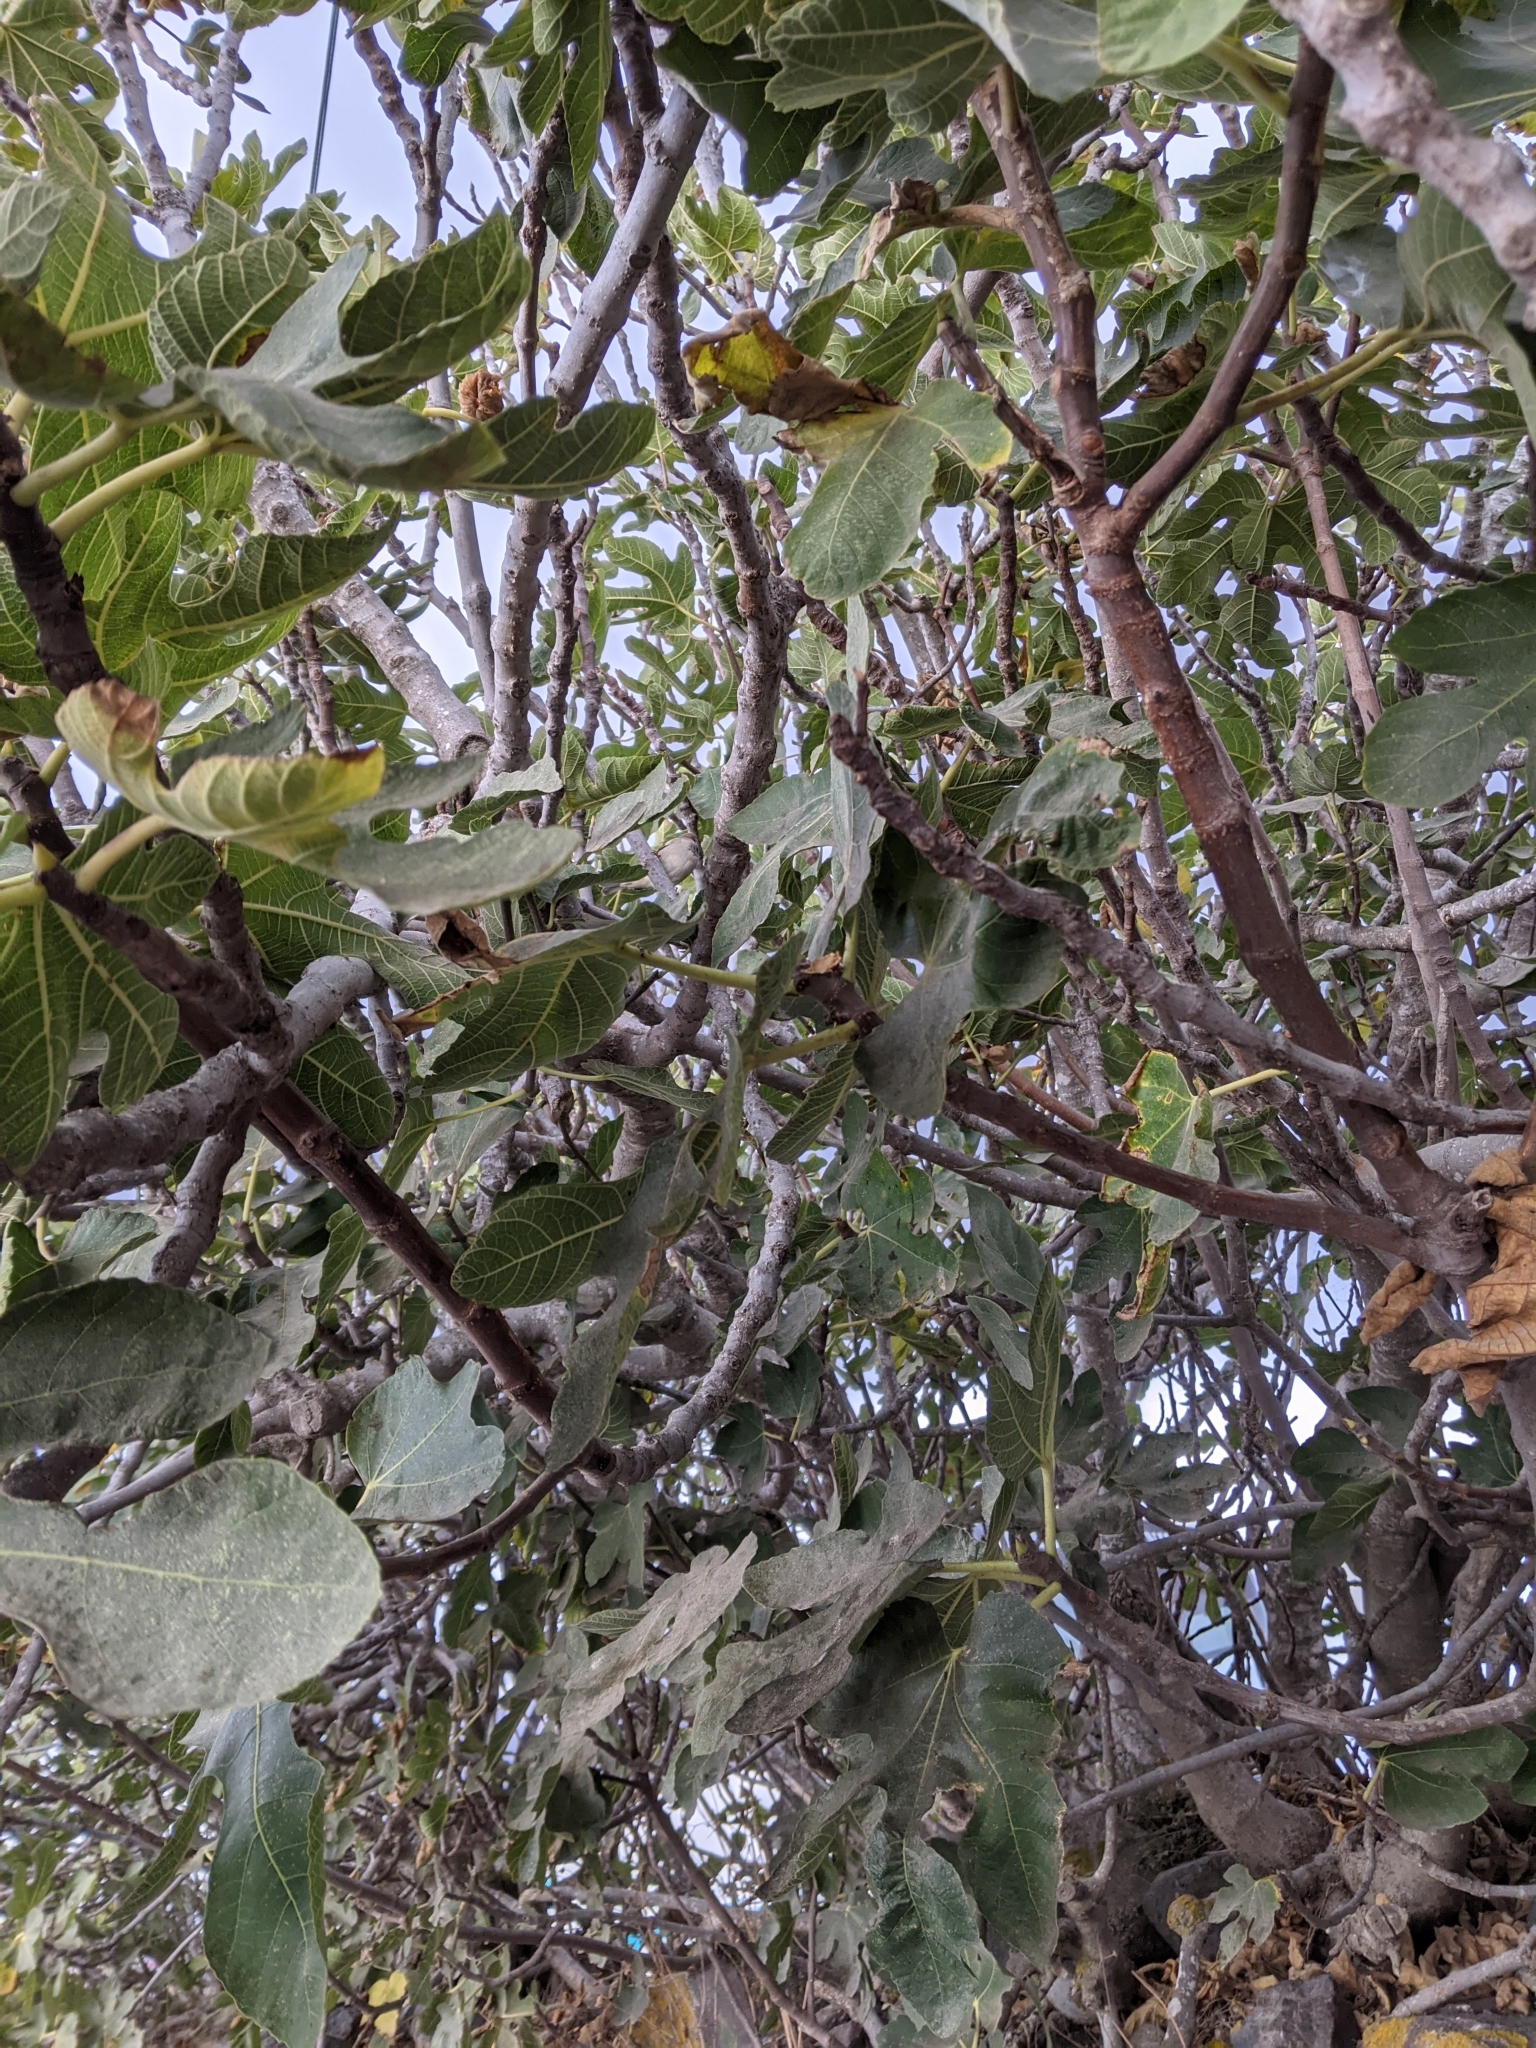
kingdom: Plantae
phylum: Tracheophyta
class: Magnoliopsida
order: Rosales
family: Moraceae
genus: Ficus
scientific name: Ficus carica
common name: Fig
